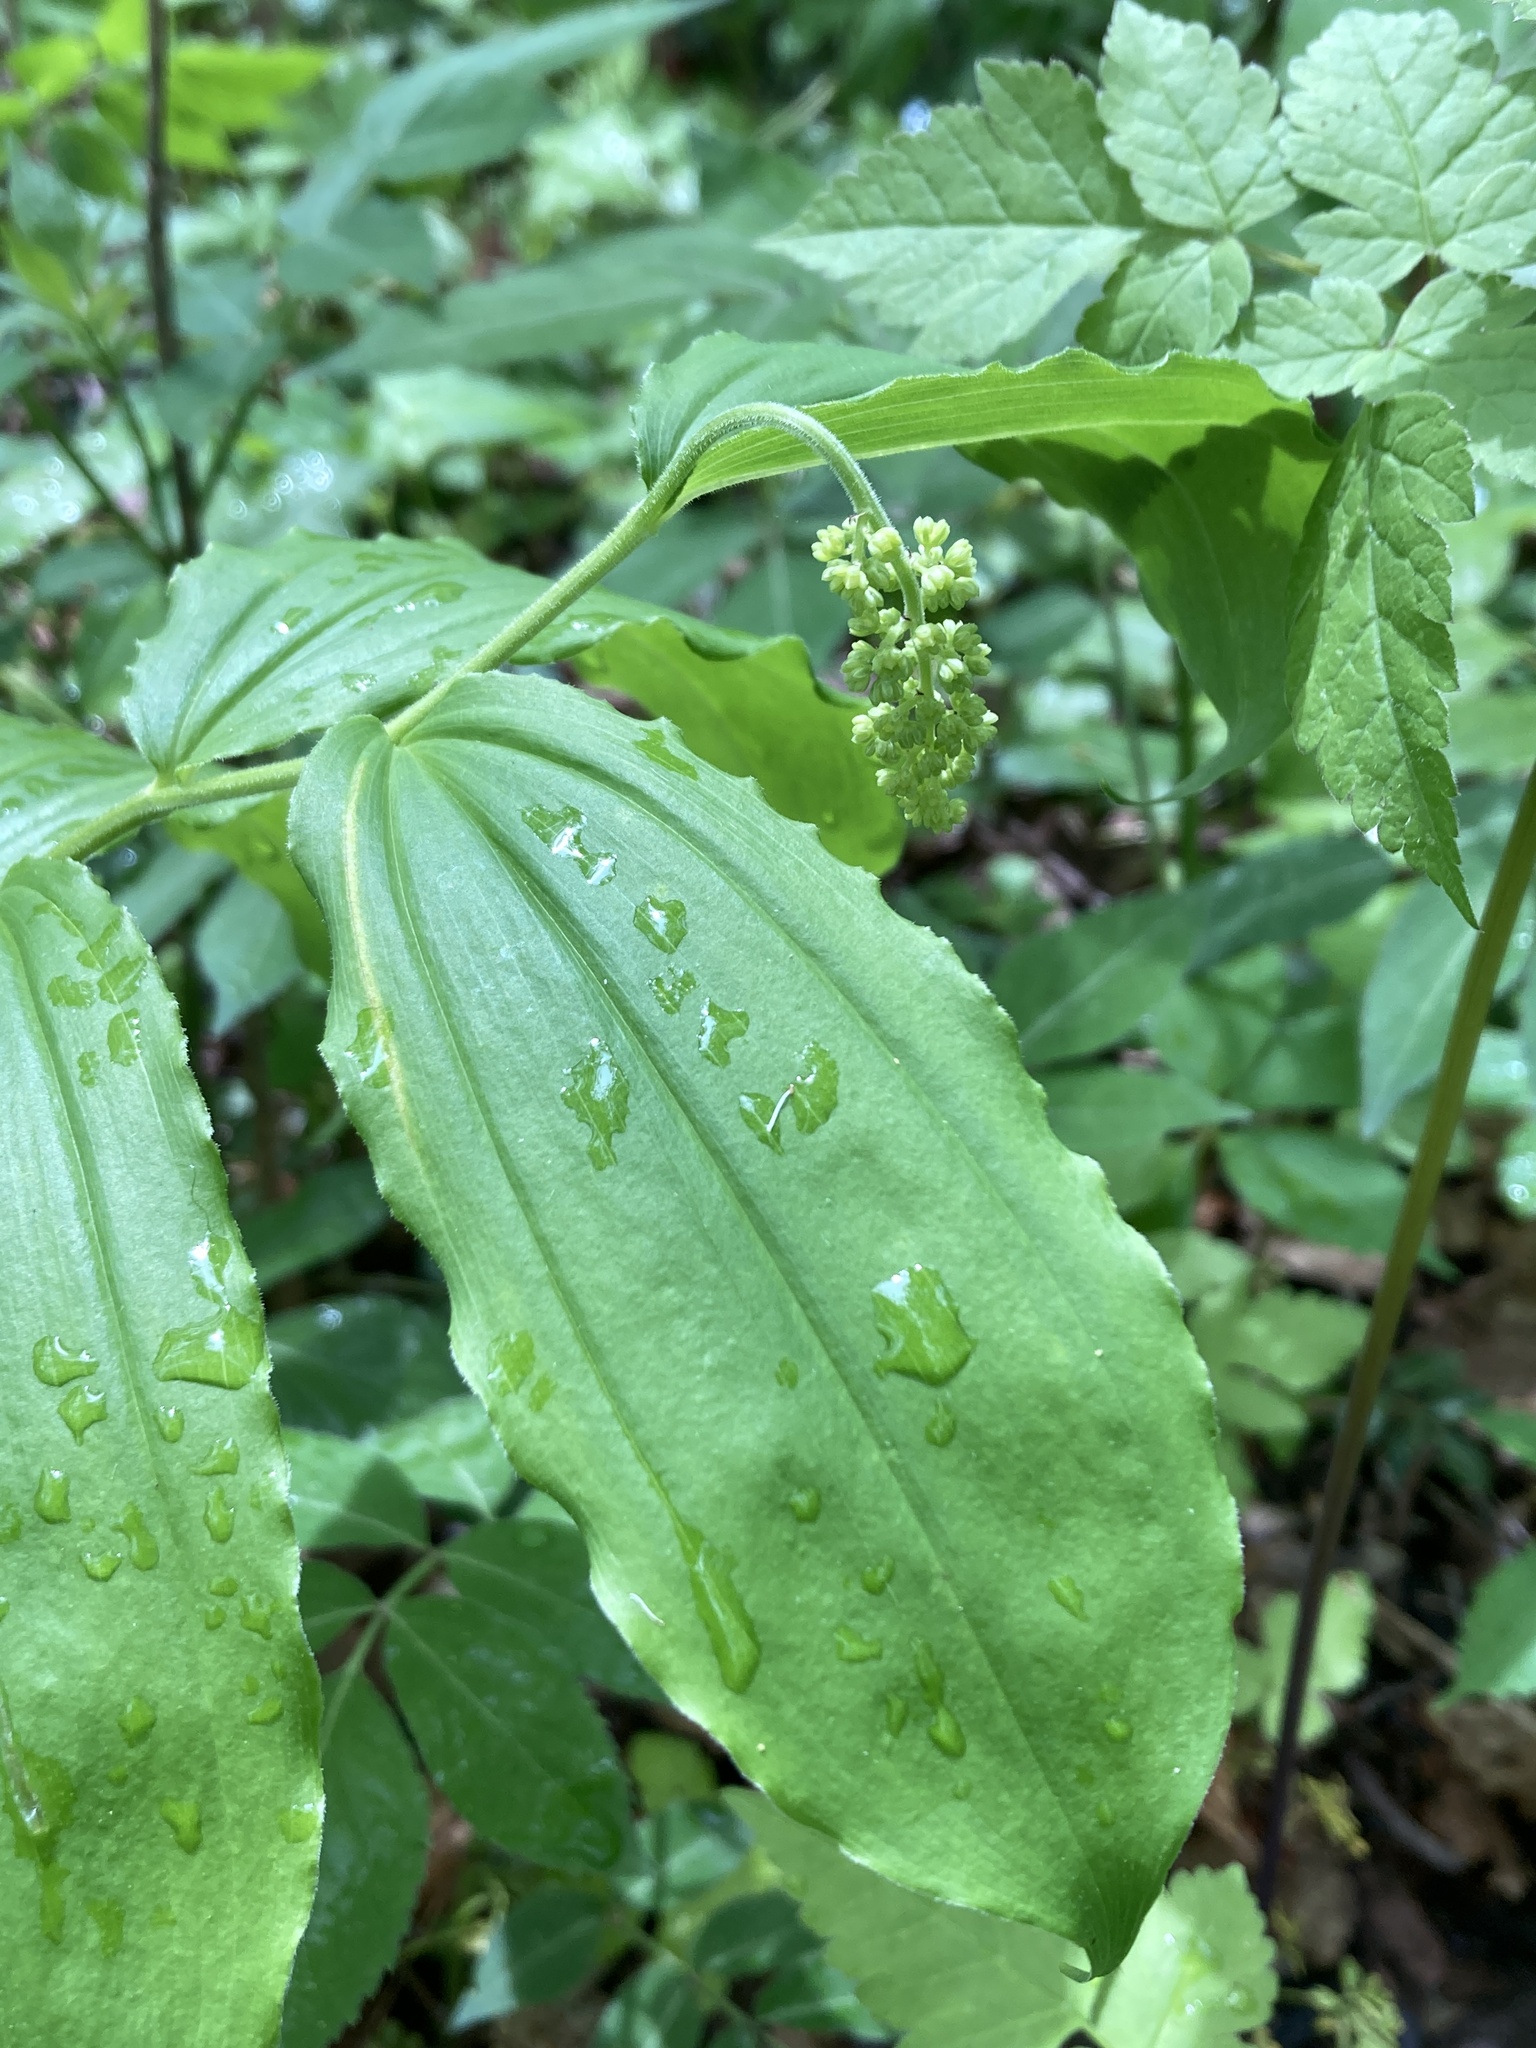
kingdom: Plantae
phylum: Tracheophyta
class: Liliopsida
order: Asparagales
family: Asparagaceae
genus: Maianthemum
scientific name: Maianthemum racemosum
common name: False spikenard
